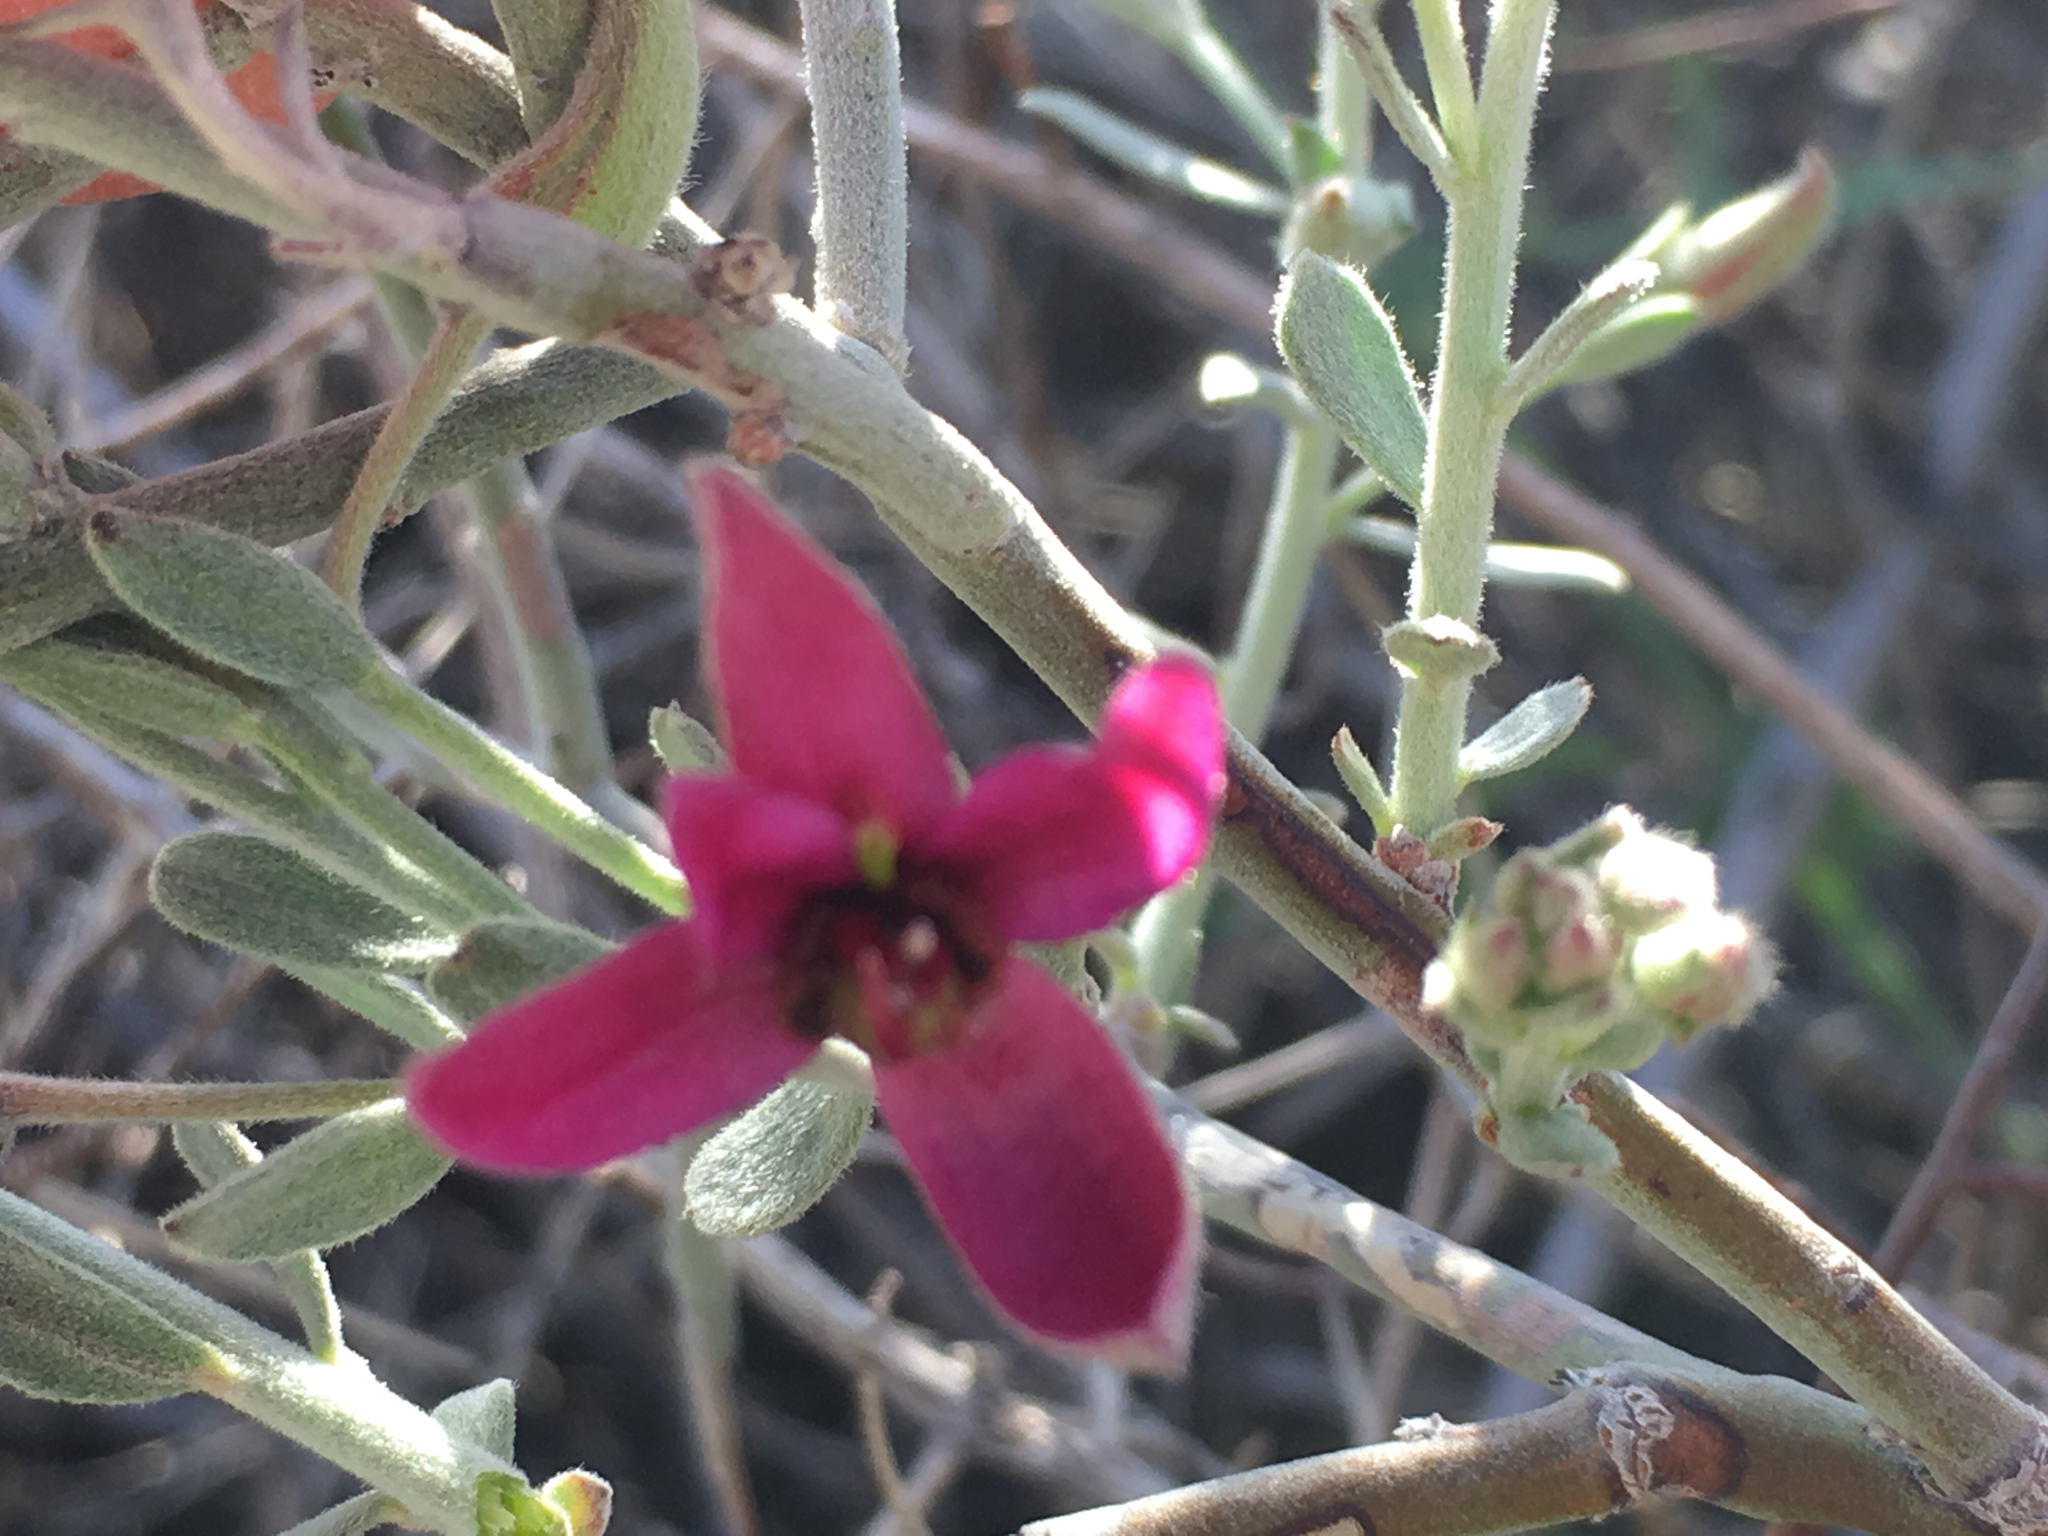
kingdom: Plantae
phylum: Tracheophyta
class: Magnoliopsida
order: Zygophyllales
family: Krameriaceae
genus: Krameria
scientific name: Krameria bicolor
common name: White ratany
